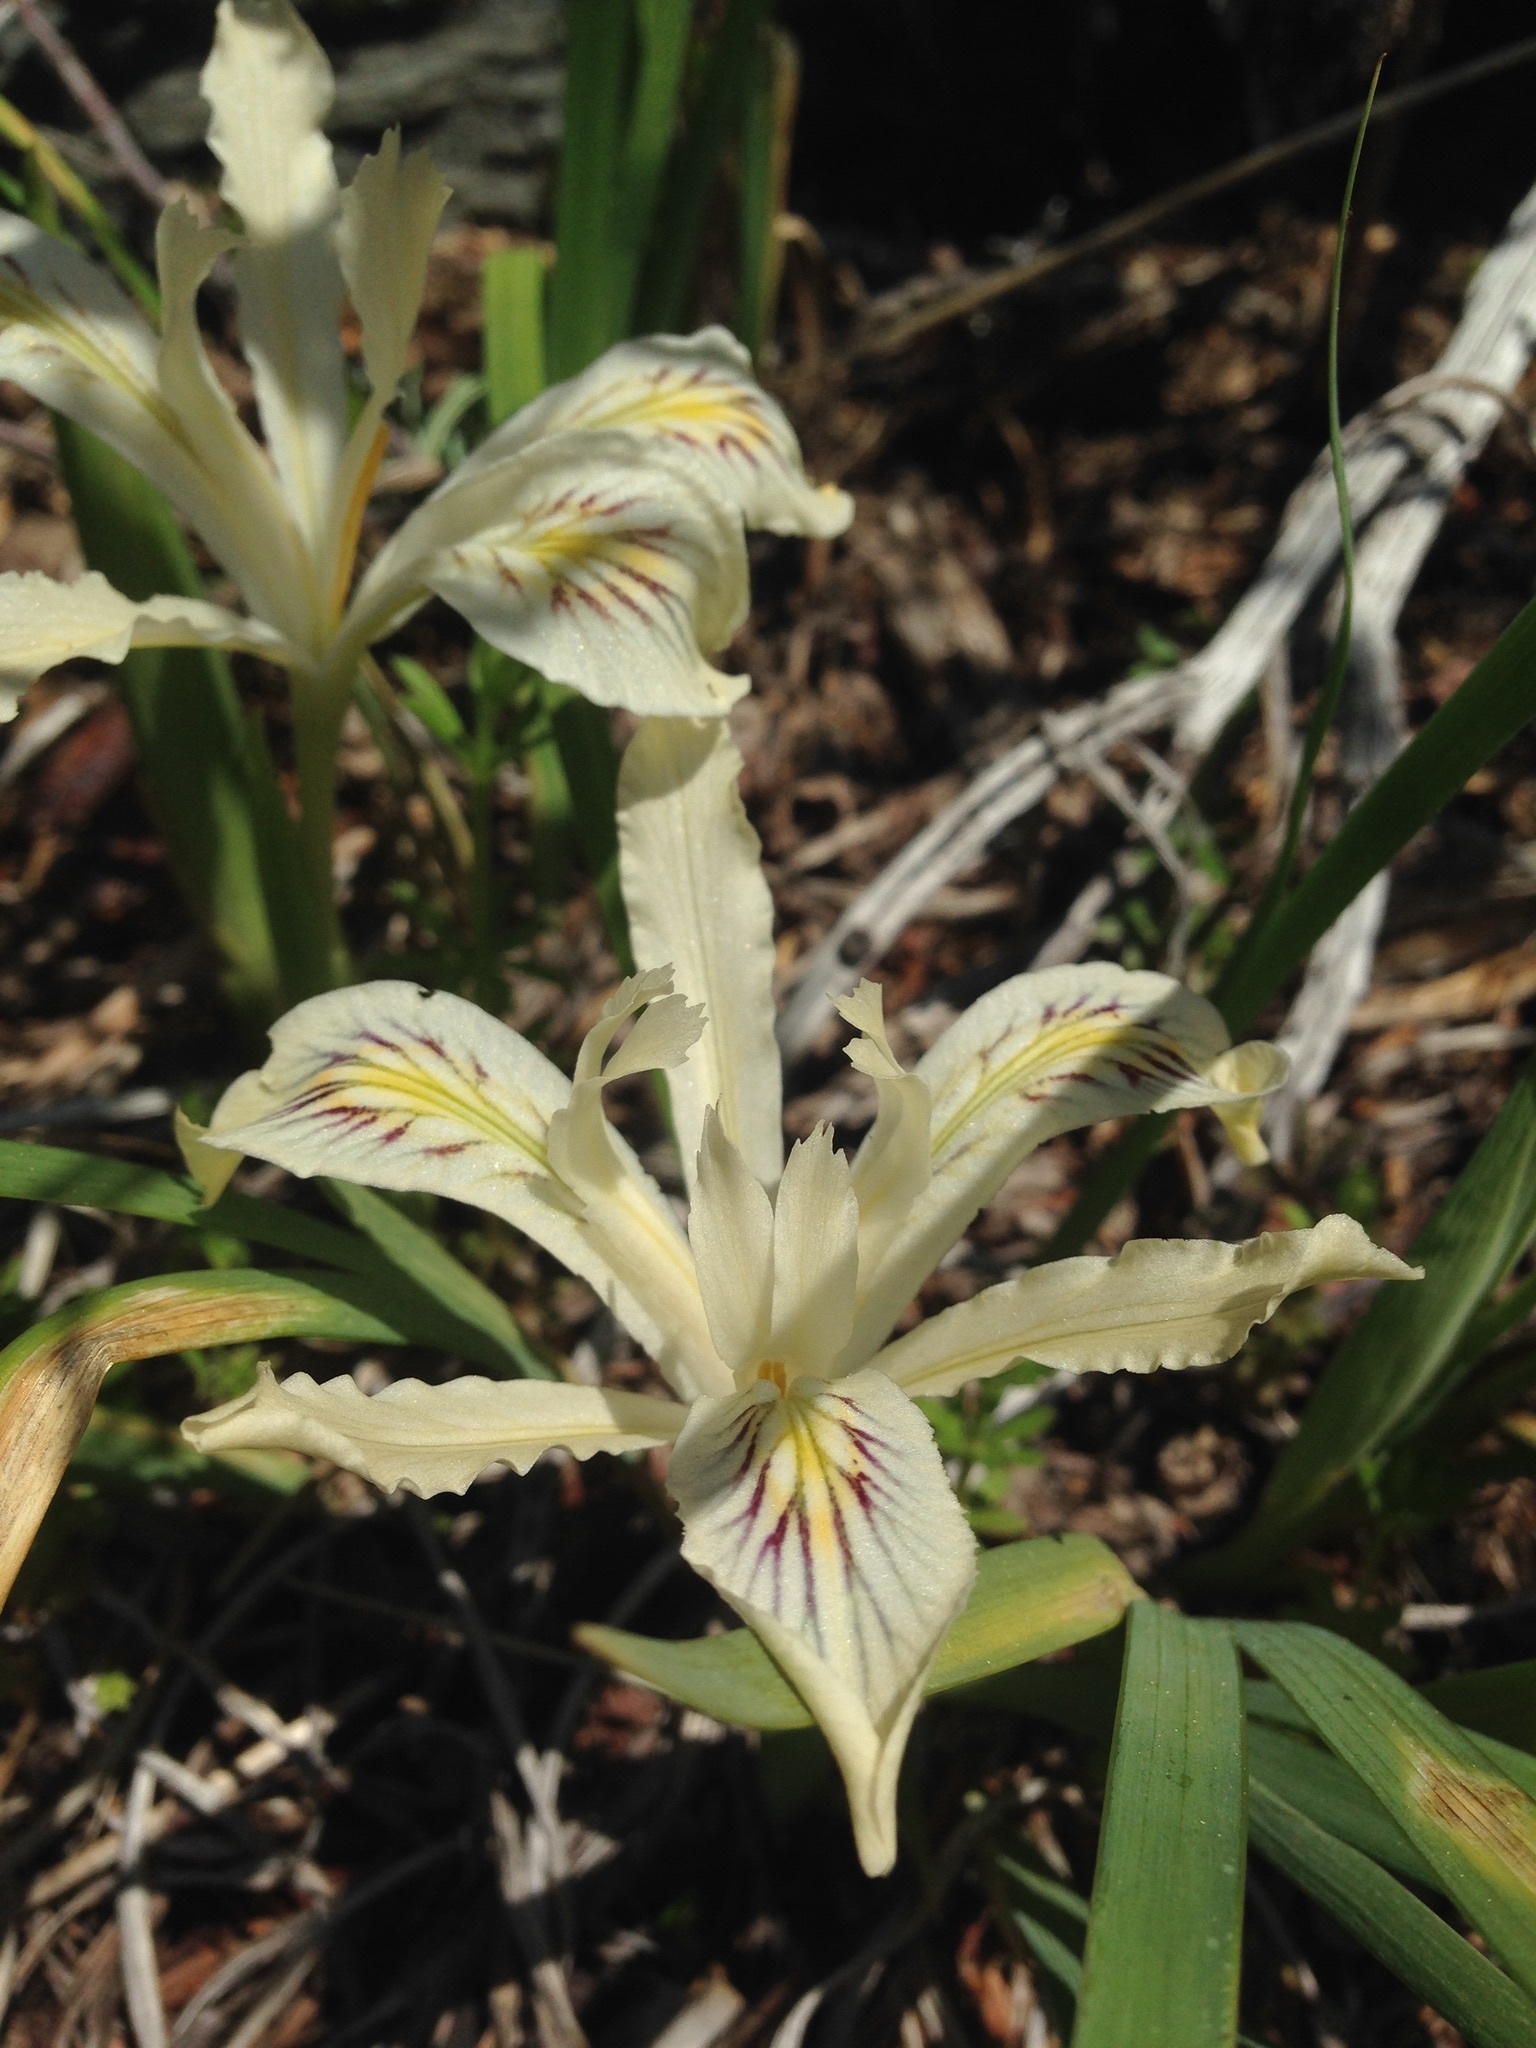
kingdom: Plantae
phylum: Tracheophyta
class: Liliopsida
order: Asparagales
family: Iridaceae
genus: Iris
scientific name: Iris tenuissima
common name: Long-tube iris
